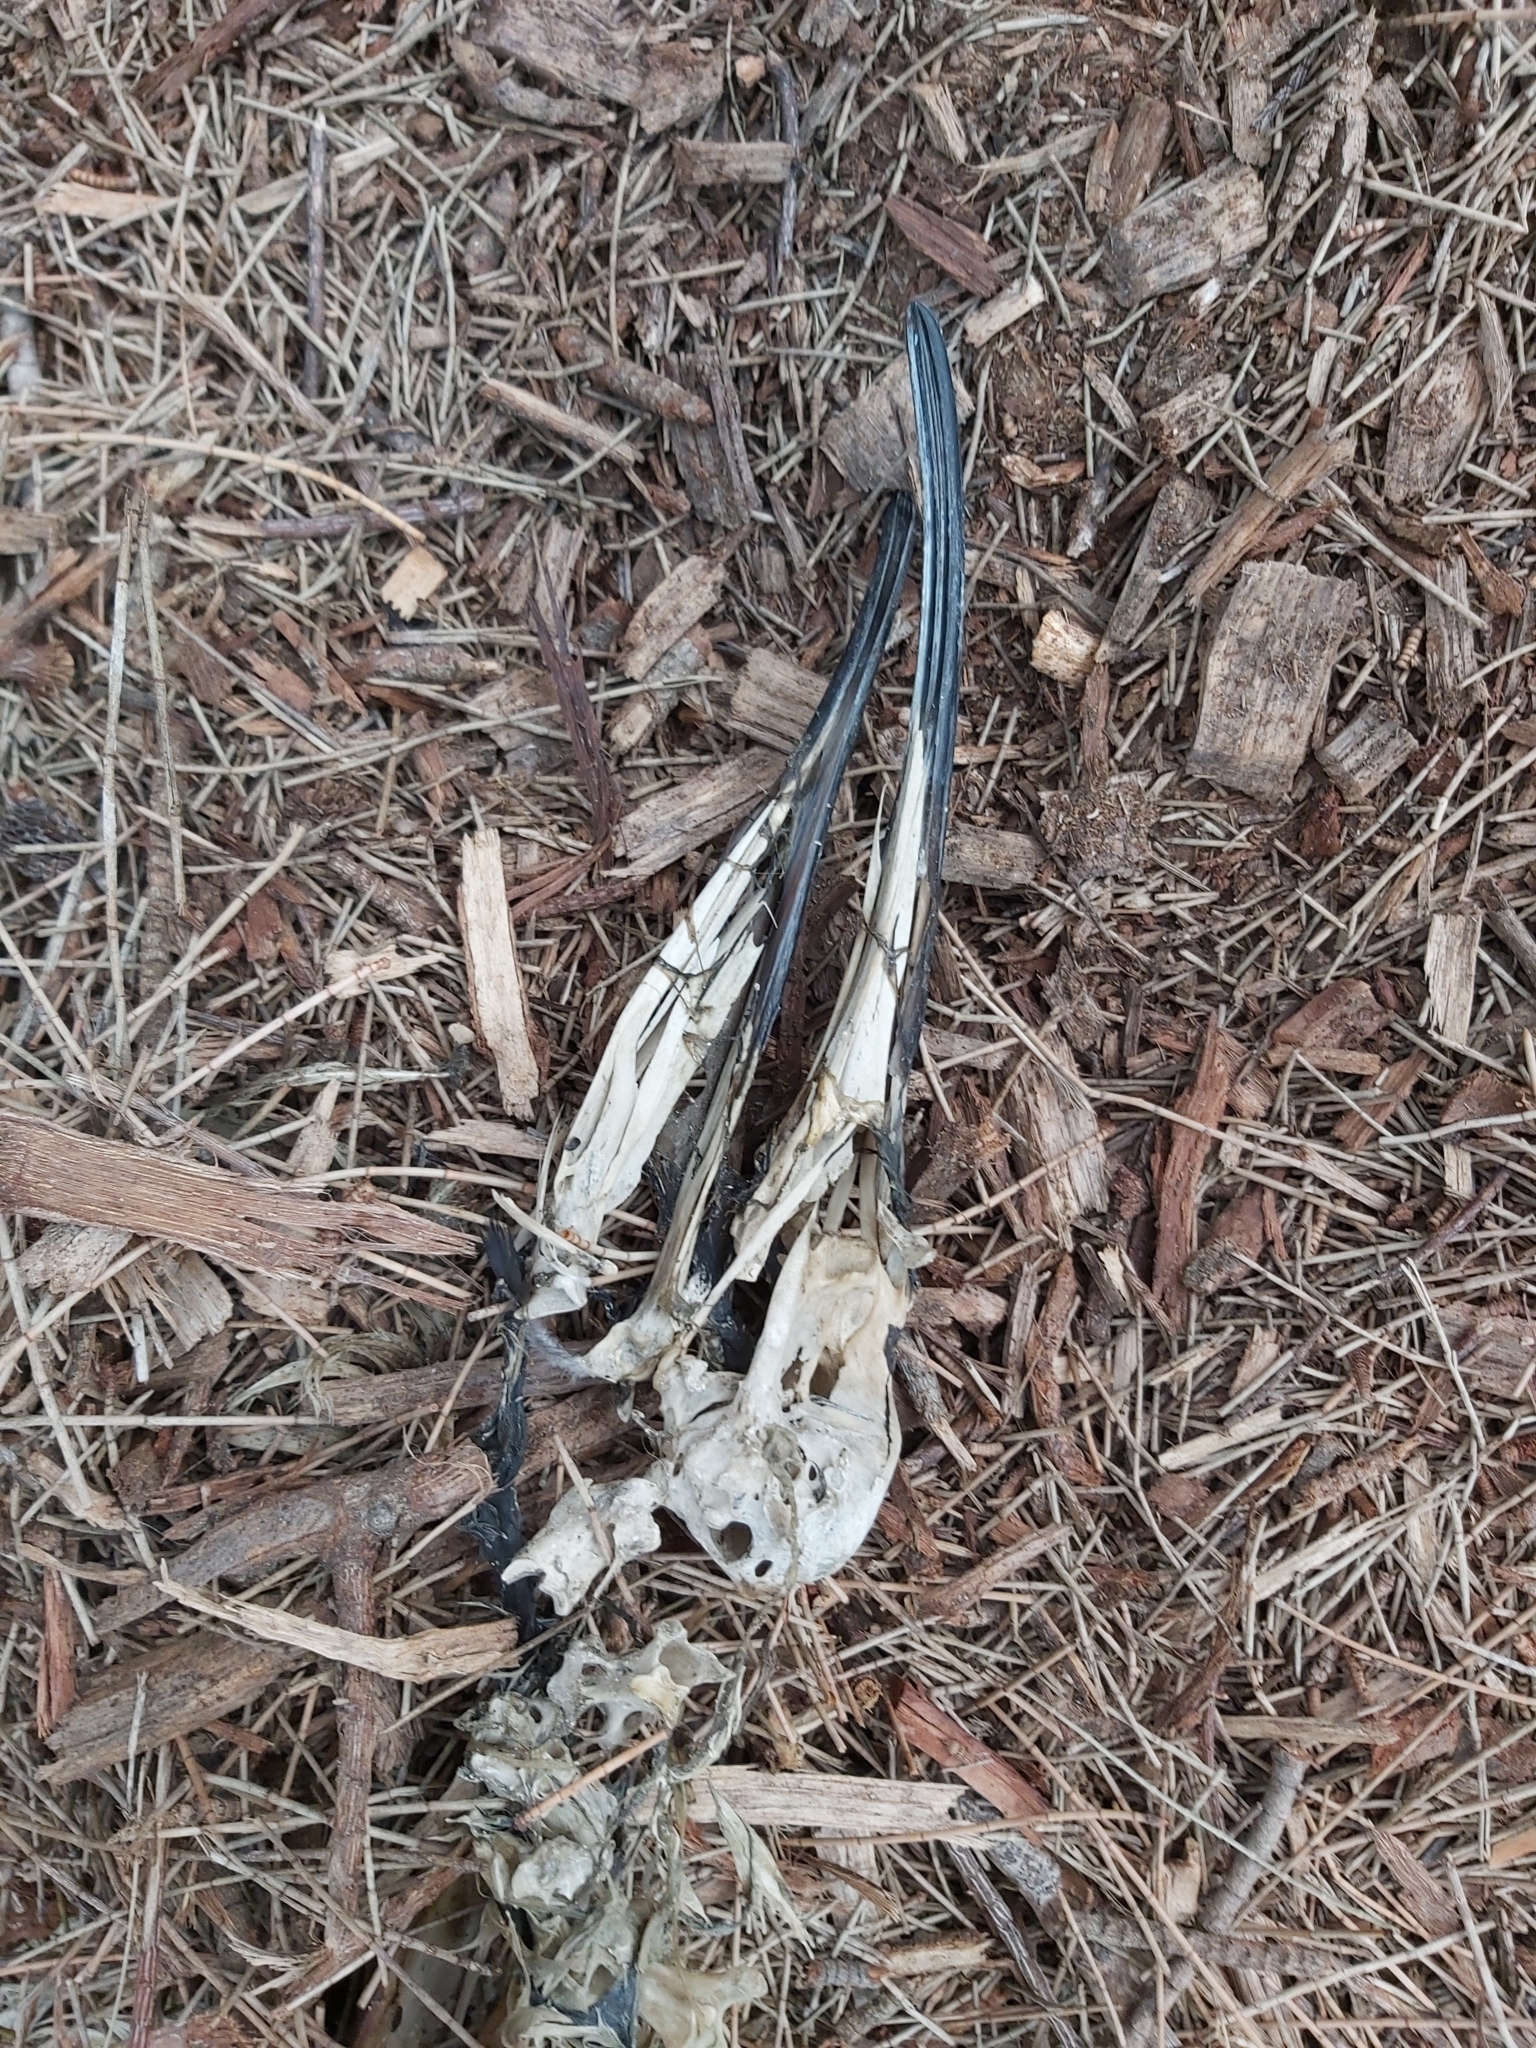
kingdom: Animalia
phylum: Chordata
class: Aves
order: Pelecaniformes
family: Threskiornithidae
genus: Threskiornis
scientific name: Threskiornis molucca
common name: Australian white ibis
